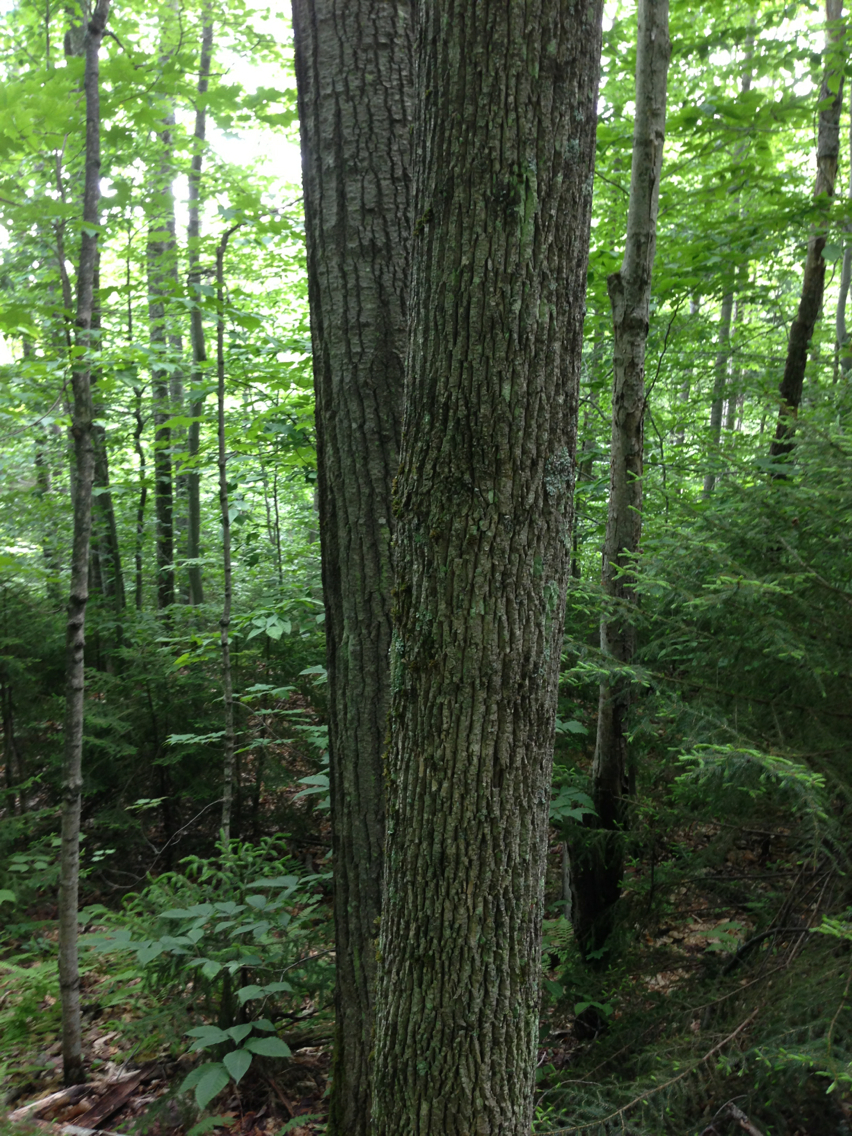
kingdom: Plantae
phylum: Tracheophyta
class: Magnoliopsida
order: Lamiales
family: Oleaceae
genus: Fraxinus
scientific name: Fraxinus americana
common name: White ash
